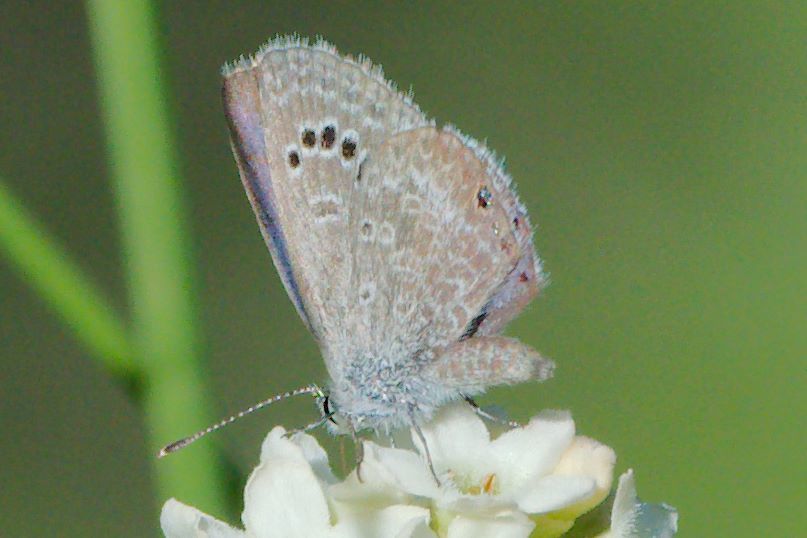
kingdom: Animalia
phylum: Arthropoda
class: Insecta
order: Lepidoptera
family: Lycaenidae
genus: Echinargus
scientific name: Echinargus isola
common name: Reakirt's blue
